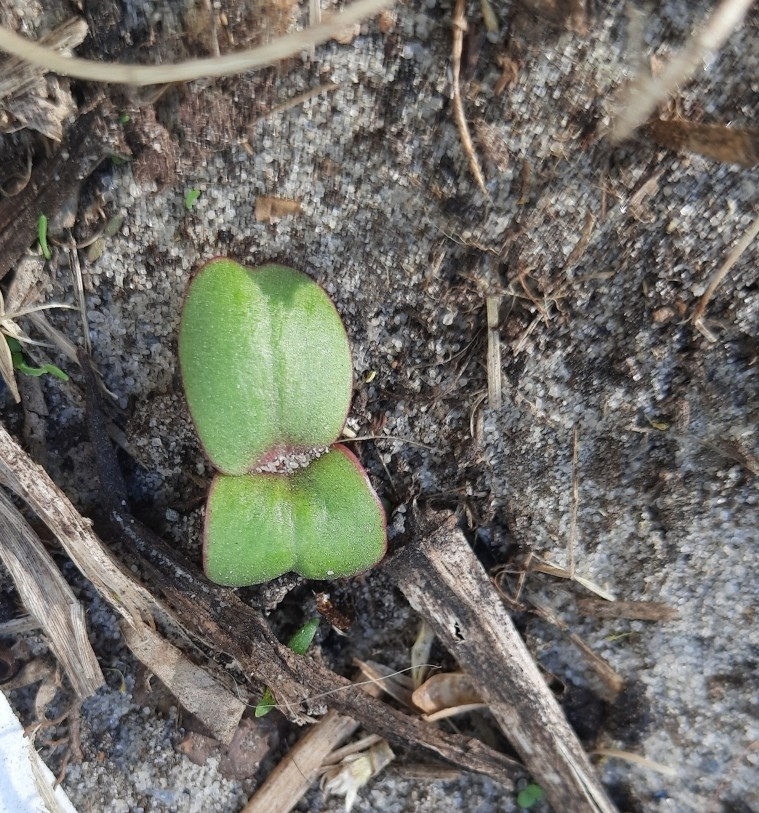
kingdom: Plantae
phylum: Tracheophyta
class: Magnoliopsida
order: Ericales
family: Balsaminaceae
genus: Impatiens
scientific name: Impatiens glandulifera
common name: Himalayan balsam
